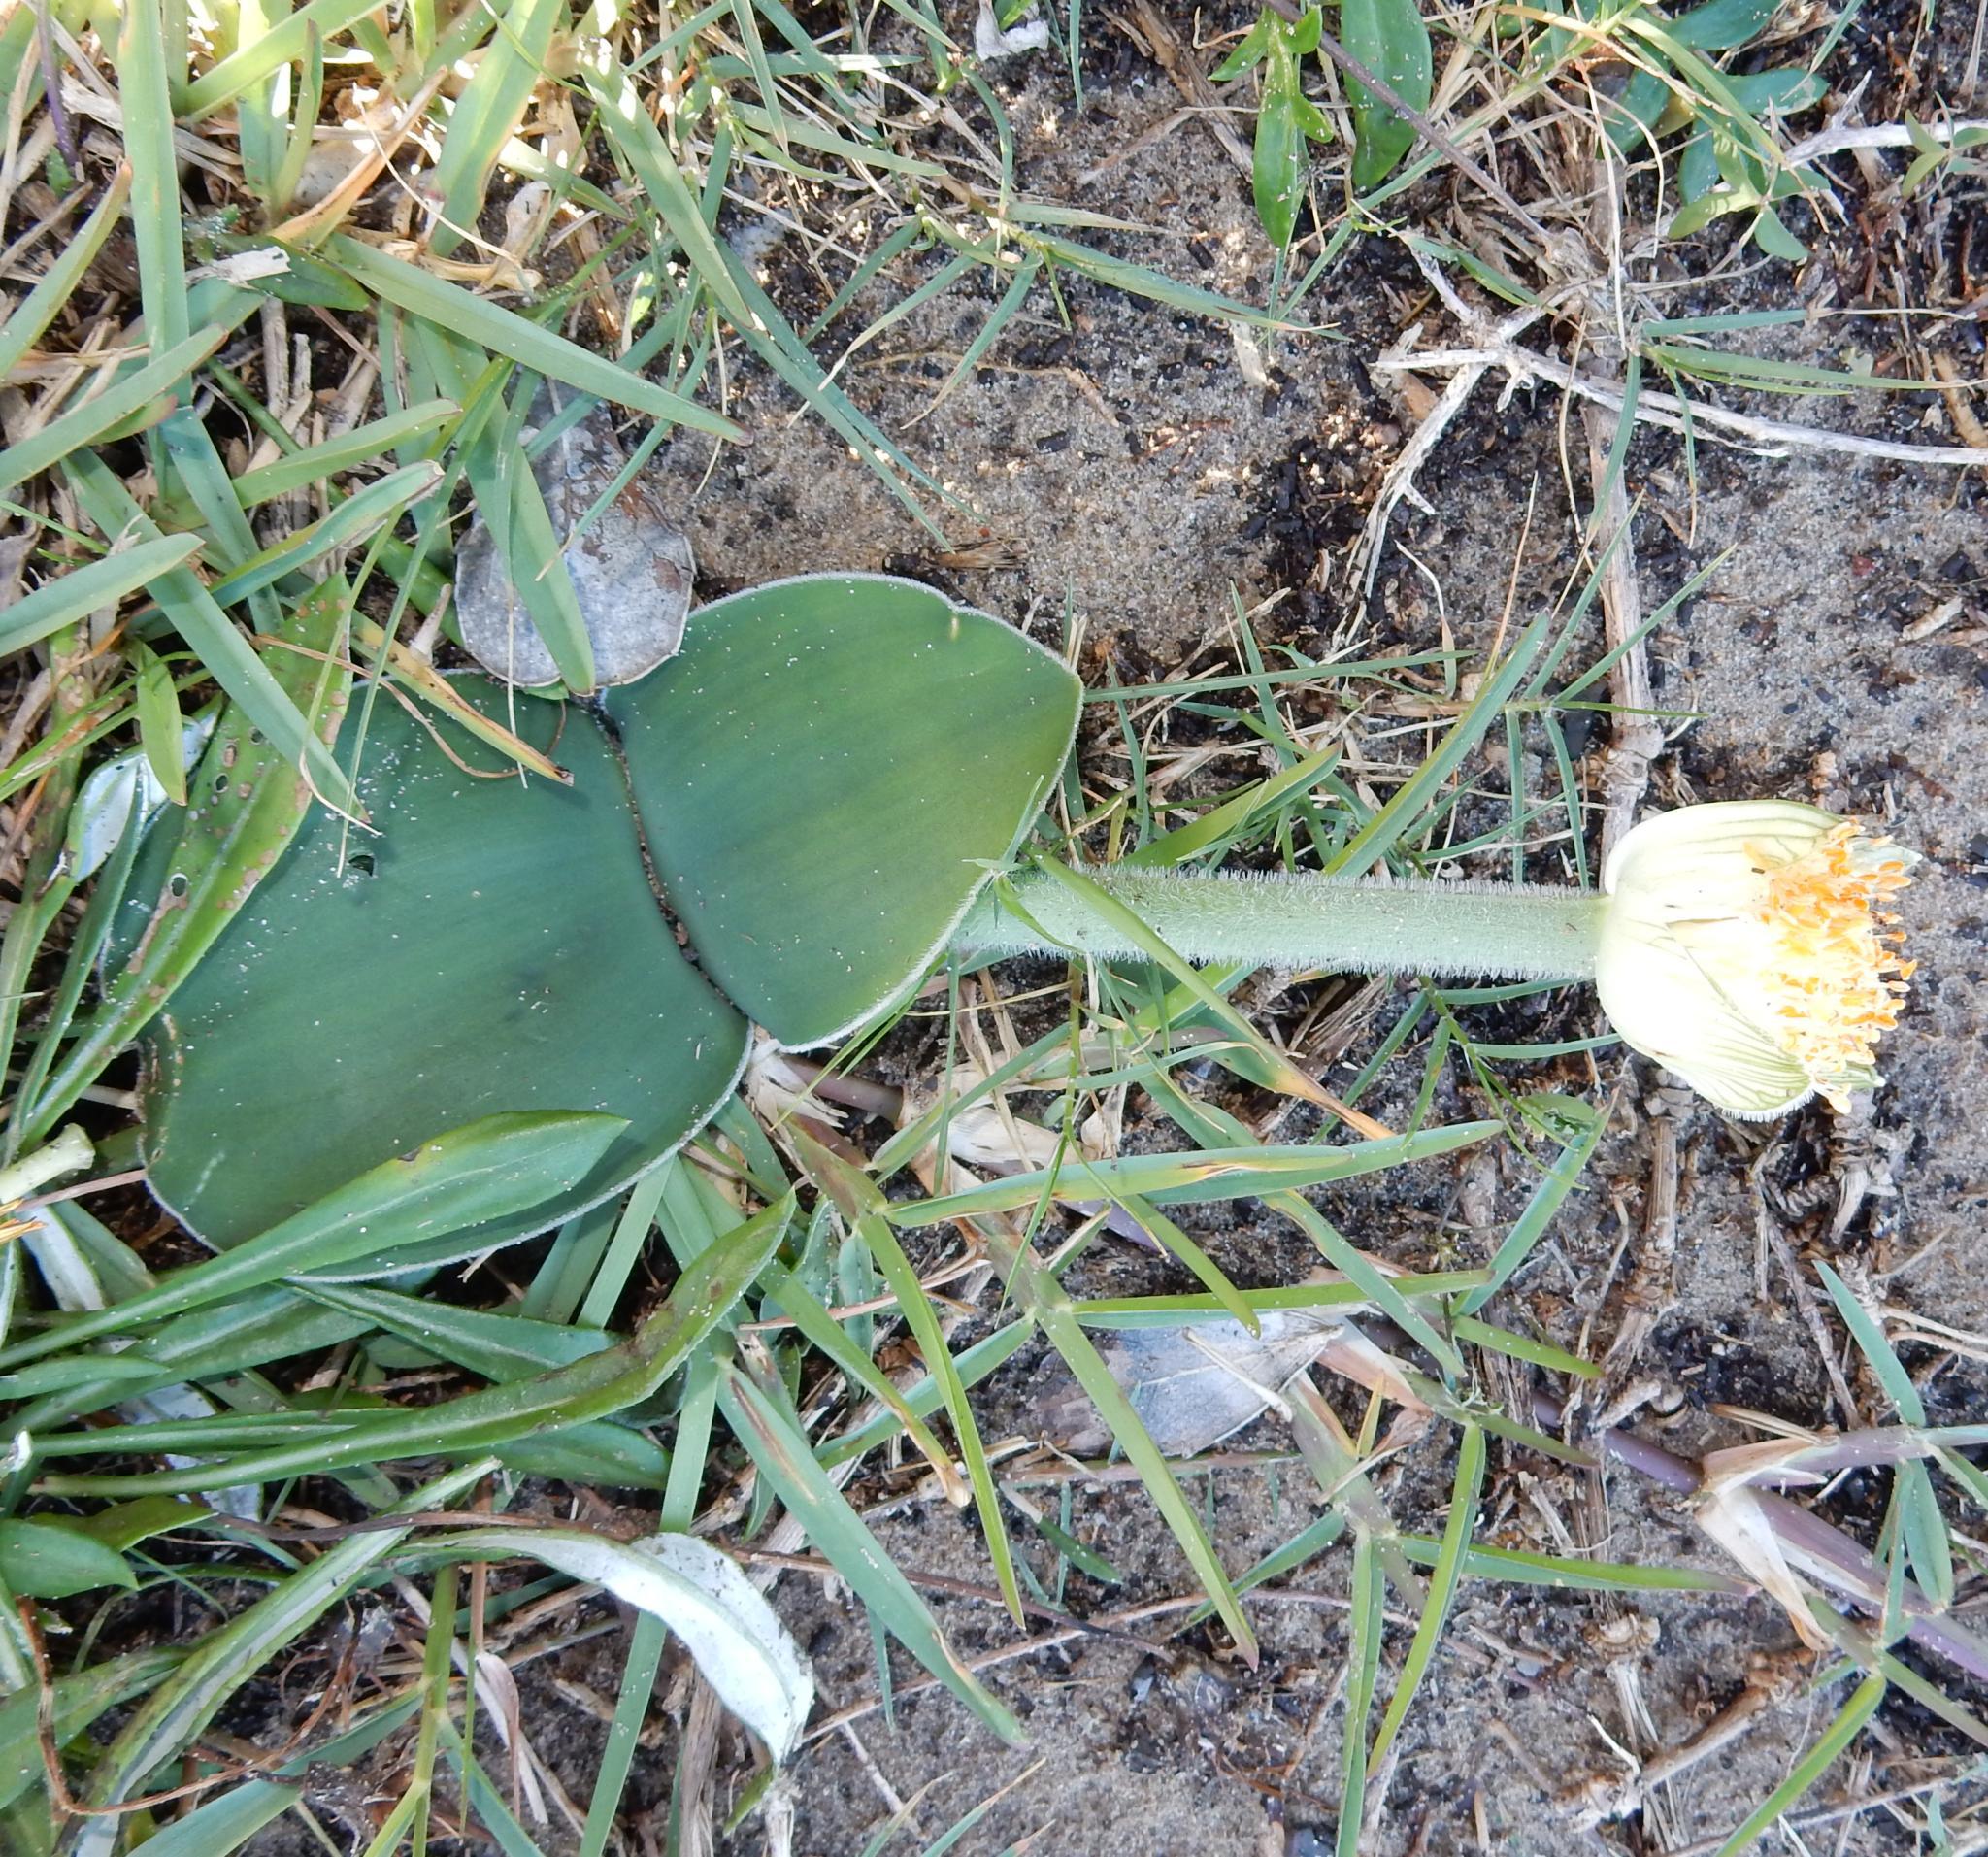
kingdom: Plantae
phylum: Tracheophyta
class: Liliopsida
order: Asparagales
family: Amaryllidaceae
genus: Haemanthus
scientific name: Haemanthus albiflos
